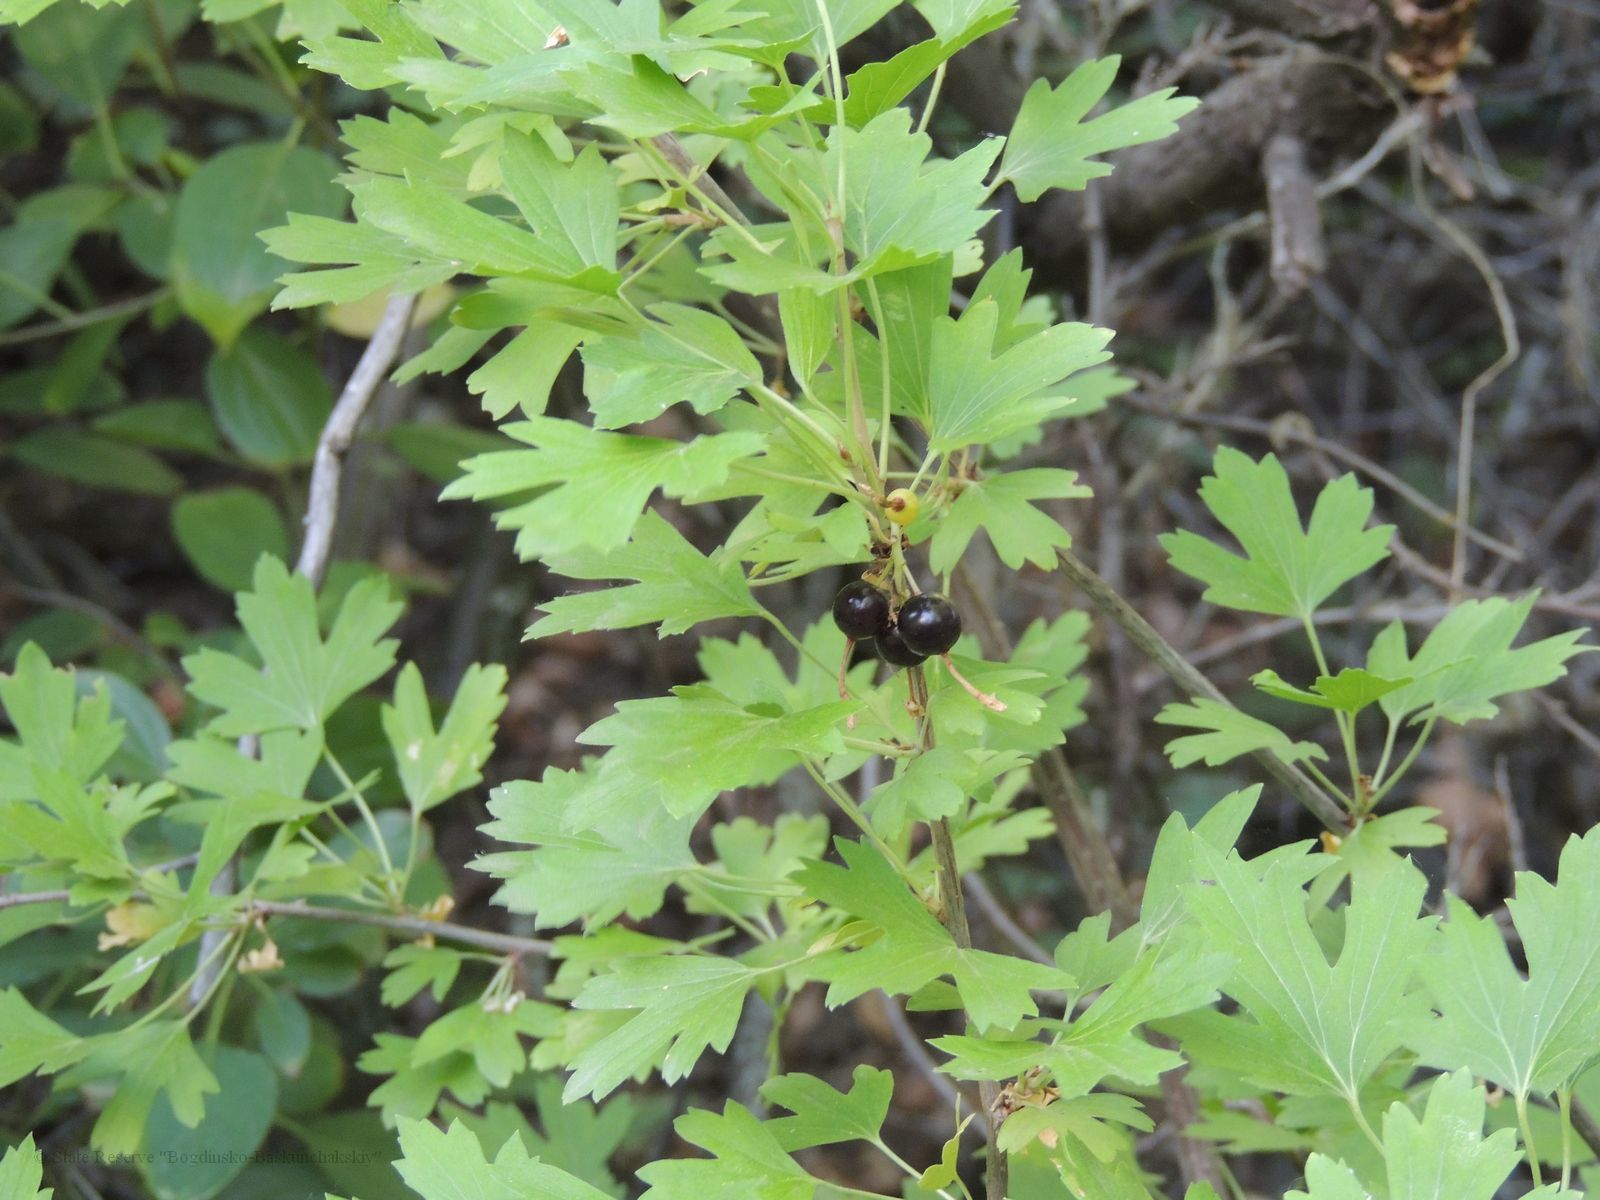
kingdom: Plantae
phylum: Tracheophyta
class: Magnoliopsida
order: Saxifragales
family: Grossulariaceae
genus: Ribes
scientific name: Ribes aureum
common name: Golden currant
